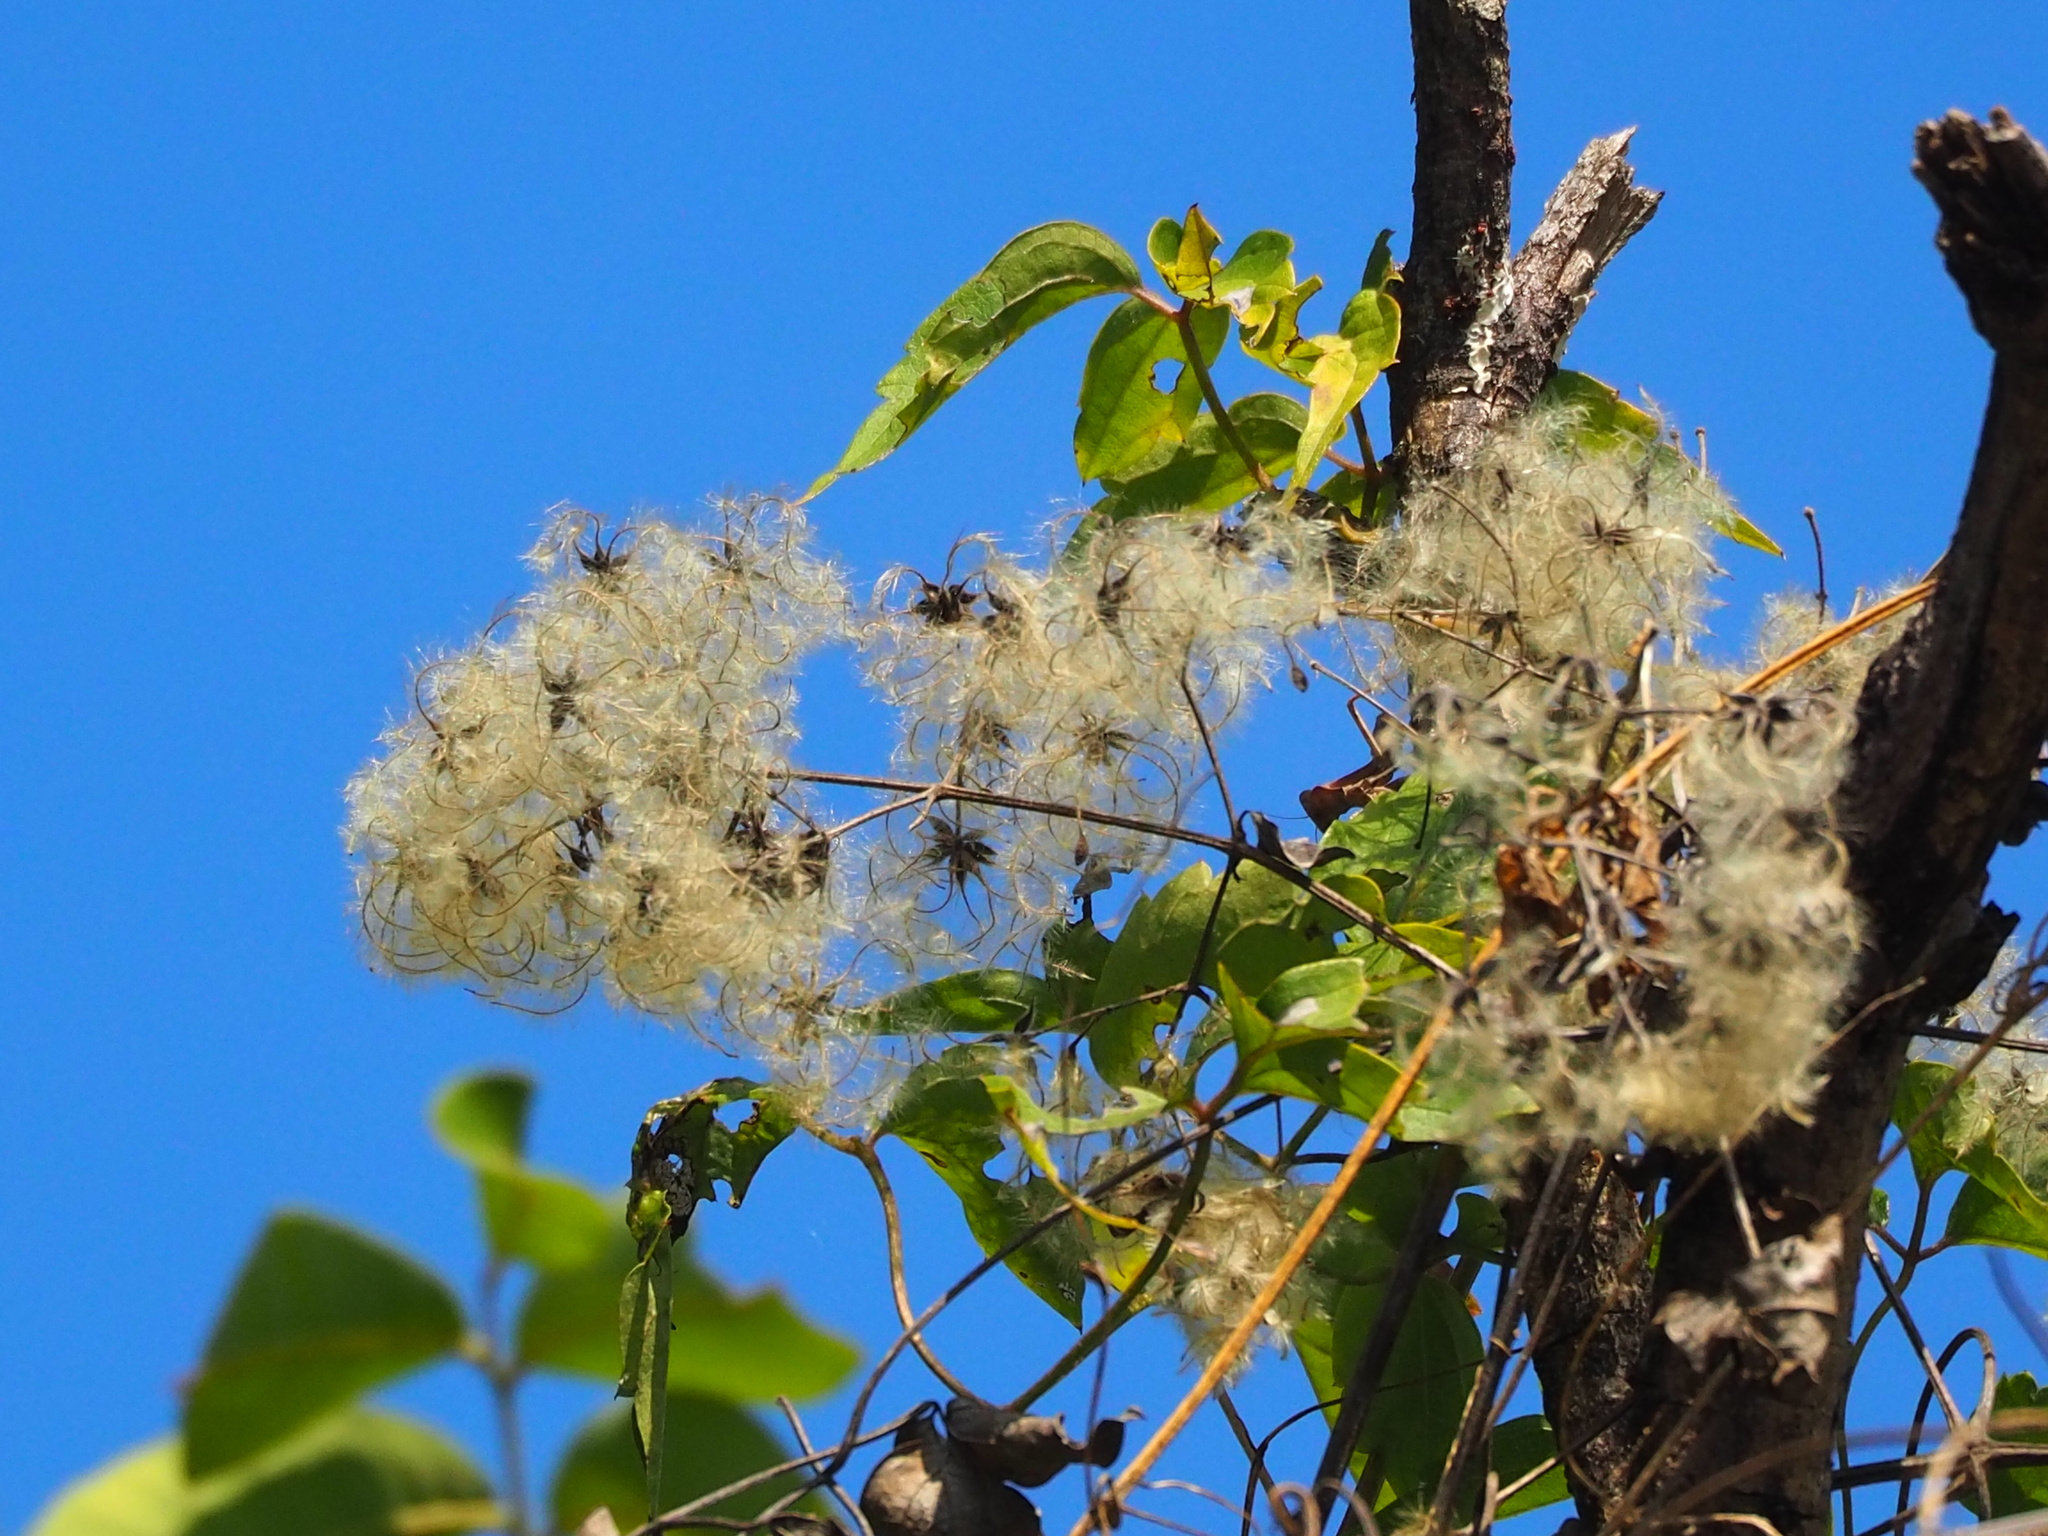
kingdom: Plantae
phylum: Tracheophyta
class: Magnoliopsida
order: Ranunculales
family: Ranunculaceae
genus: Clematis
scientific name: Clematis grata
